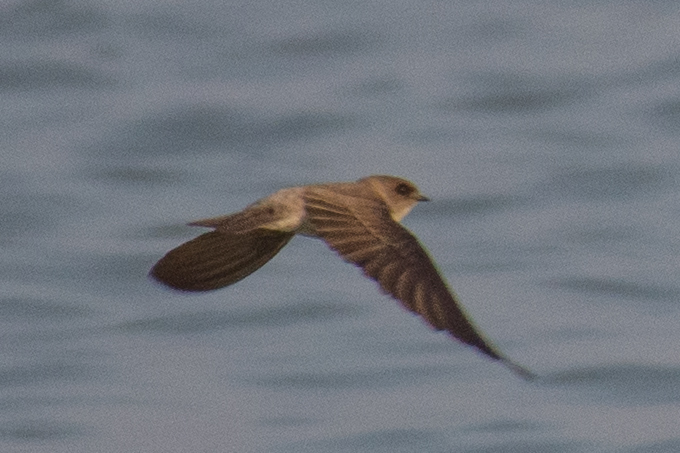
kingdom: Animalia
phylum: Chordata
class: Aves
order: Passeriformes
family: Hirundinidae
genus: Riparia
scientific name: Riparia chinensis
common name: Gray-throated martin
